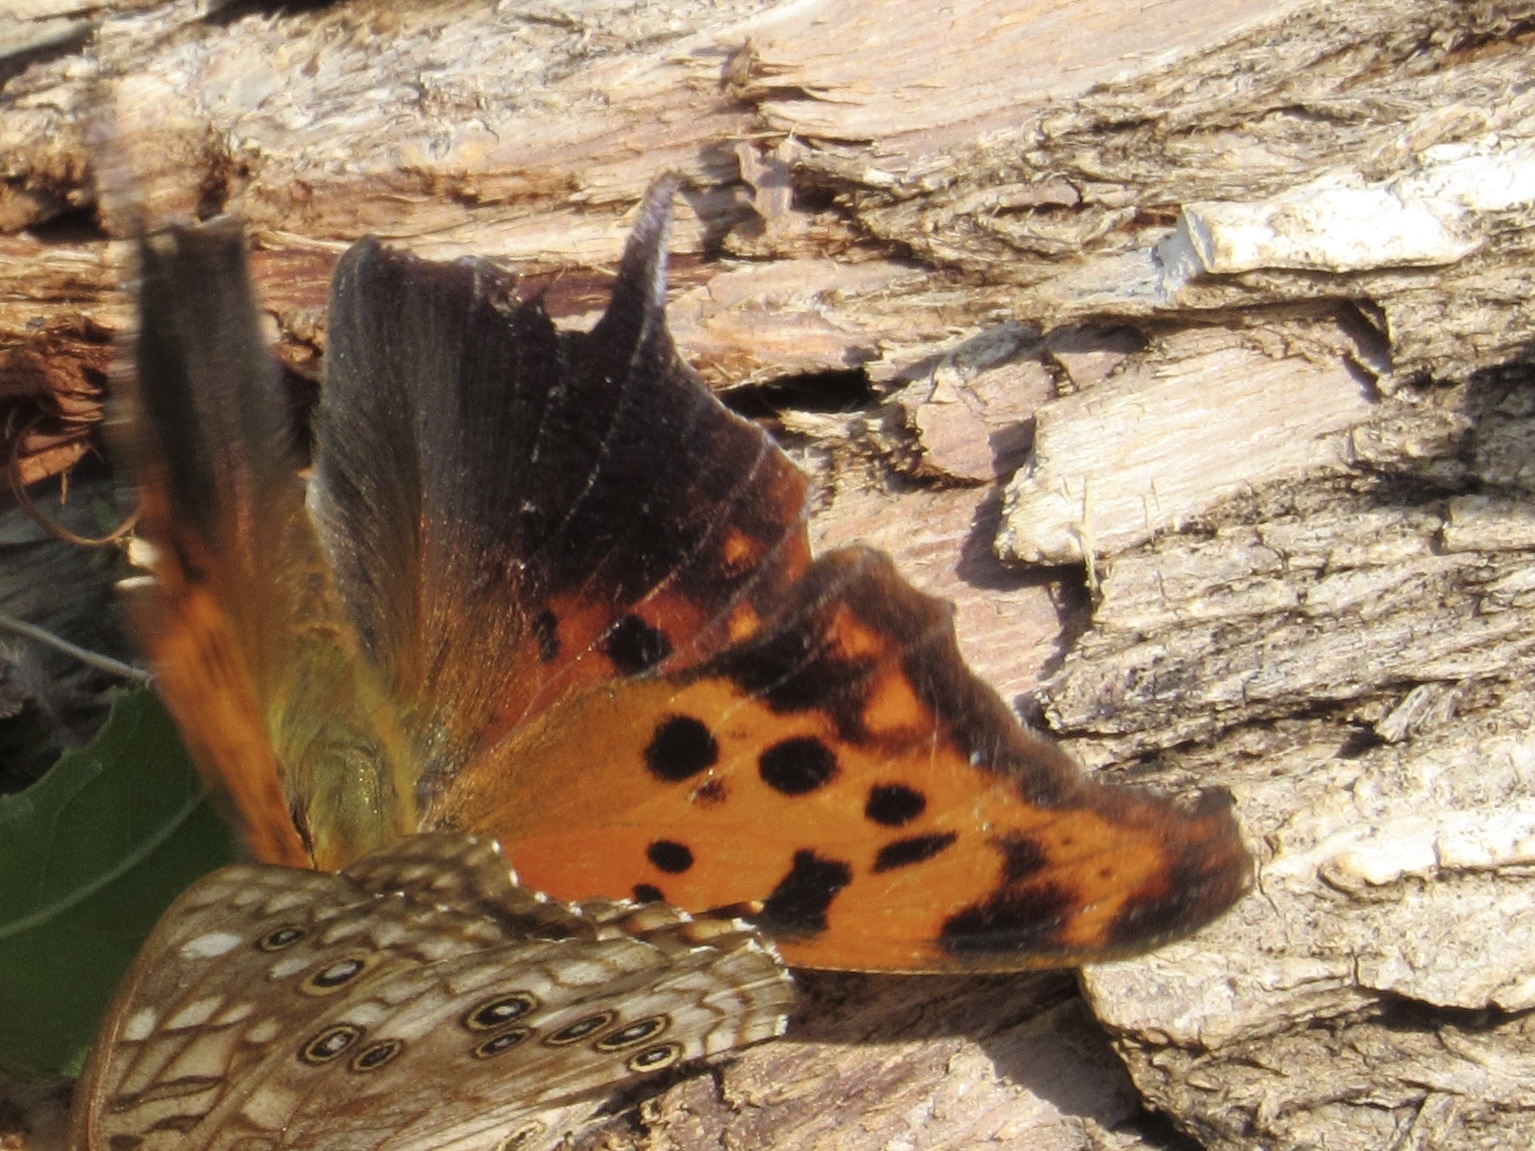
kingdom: Animalia
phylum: Arthropoda
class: Insecta
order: Lepidoptera
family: Nymphalidae
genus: Polygonia
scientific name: Polygonia interrogationis
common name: Question mark
